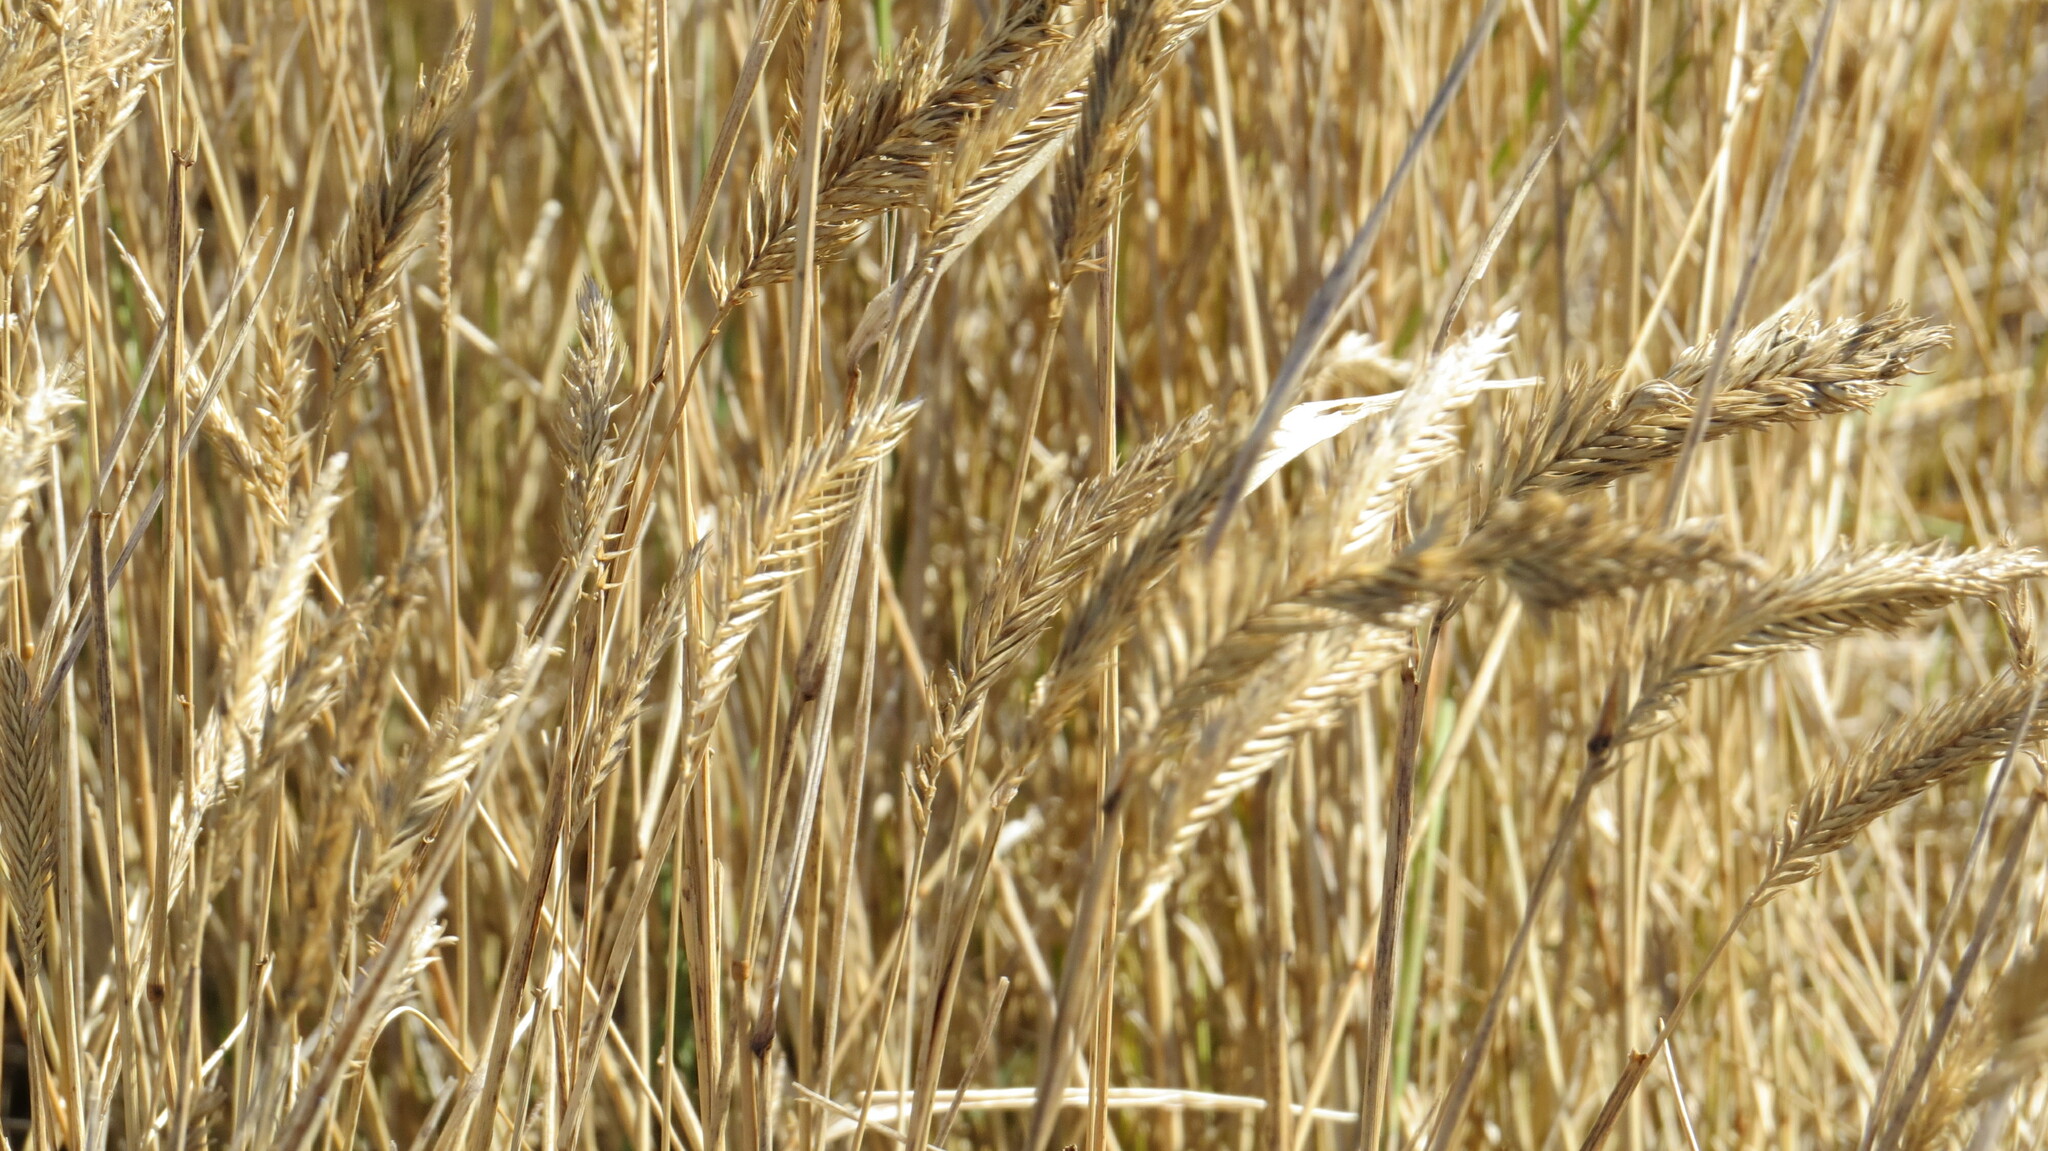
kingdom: Plantae
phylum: Tracheophyta
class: Liliopsida
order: Poales
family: Poaceae
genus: Agropyron
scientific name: Agropyron cristatum
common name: Crested wheatgrass
